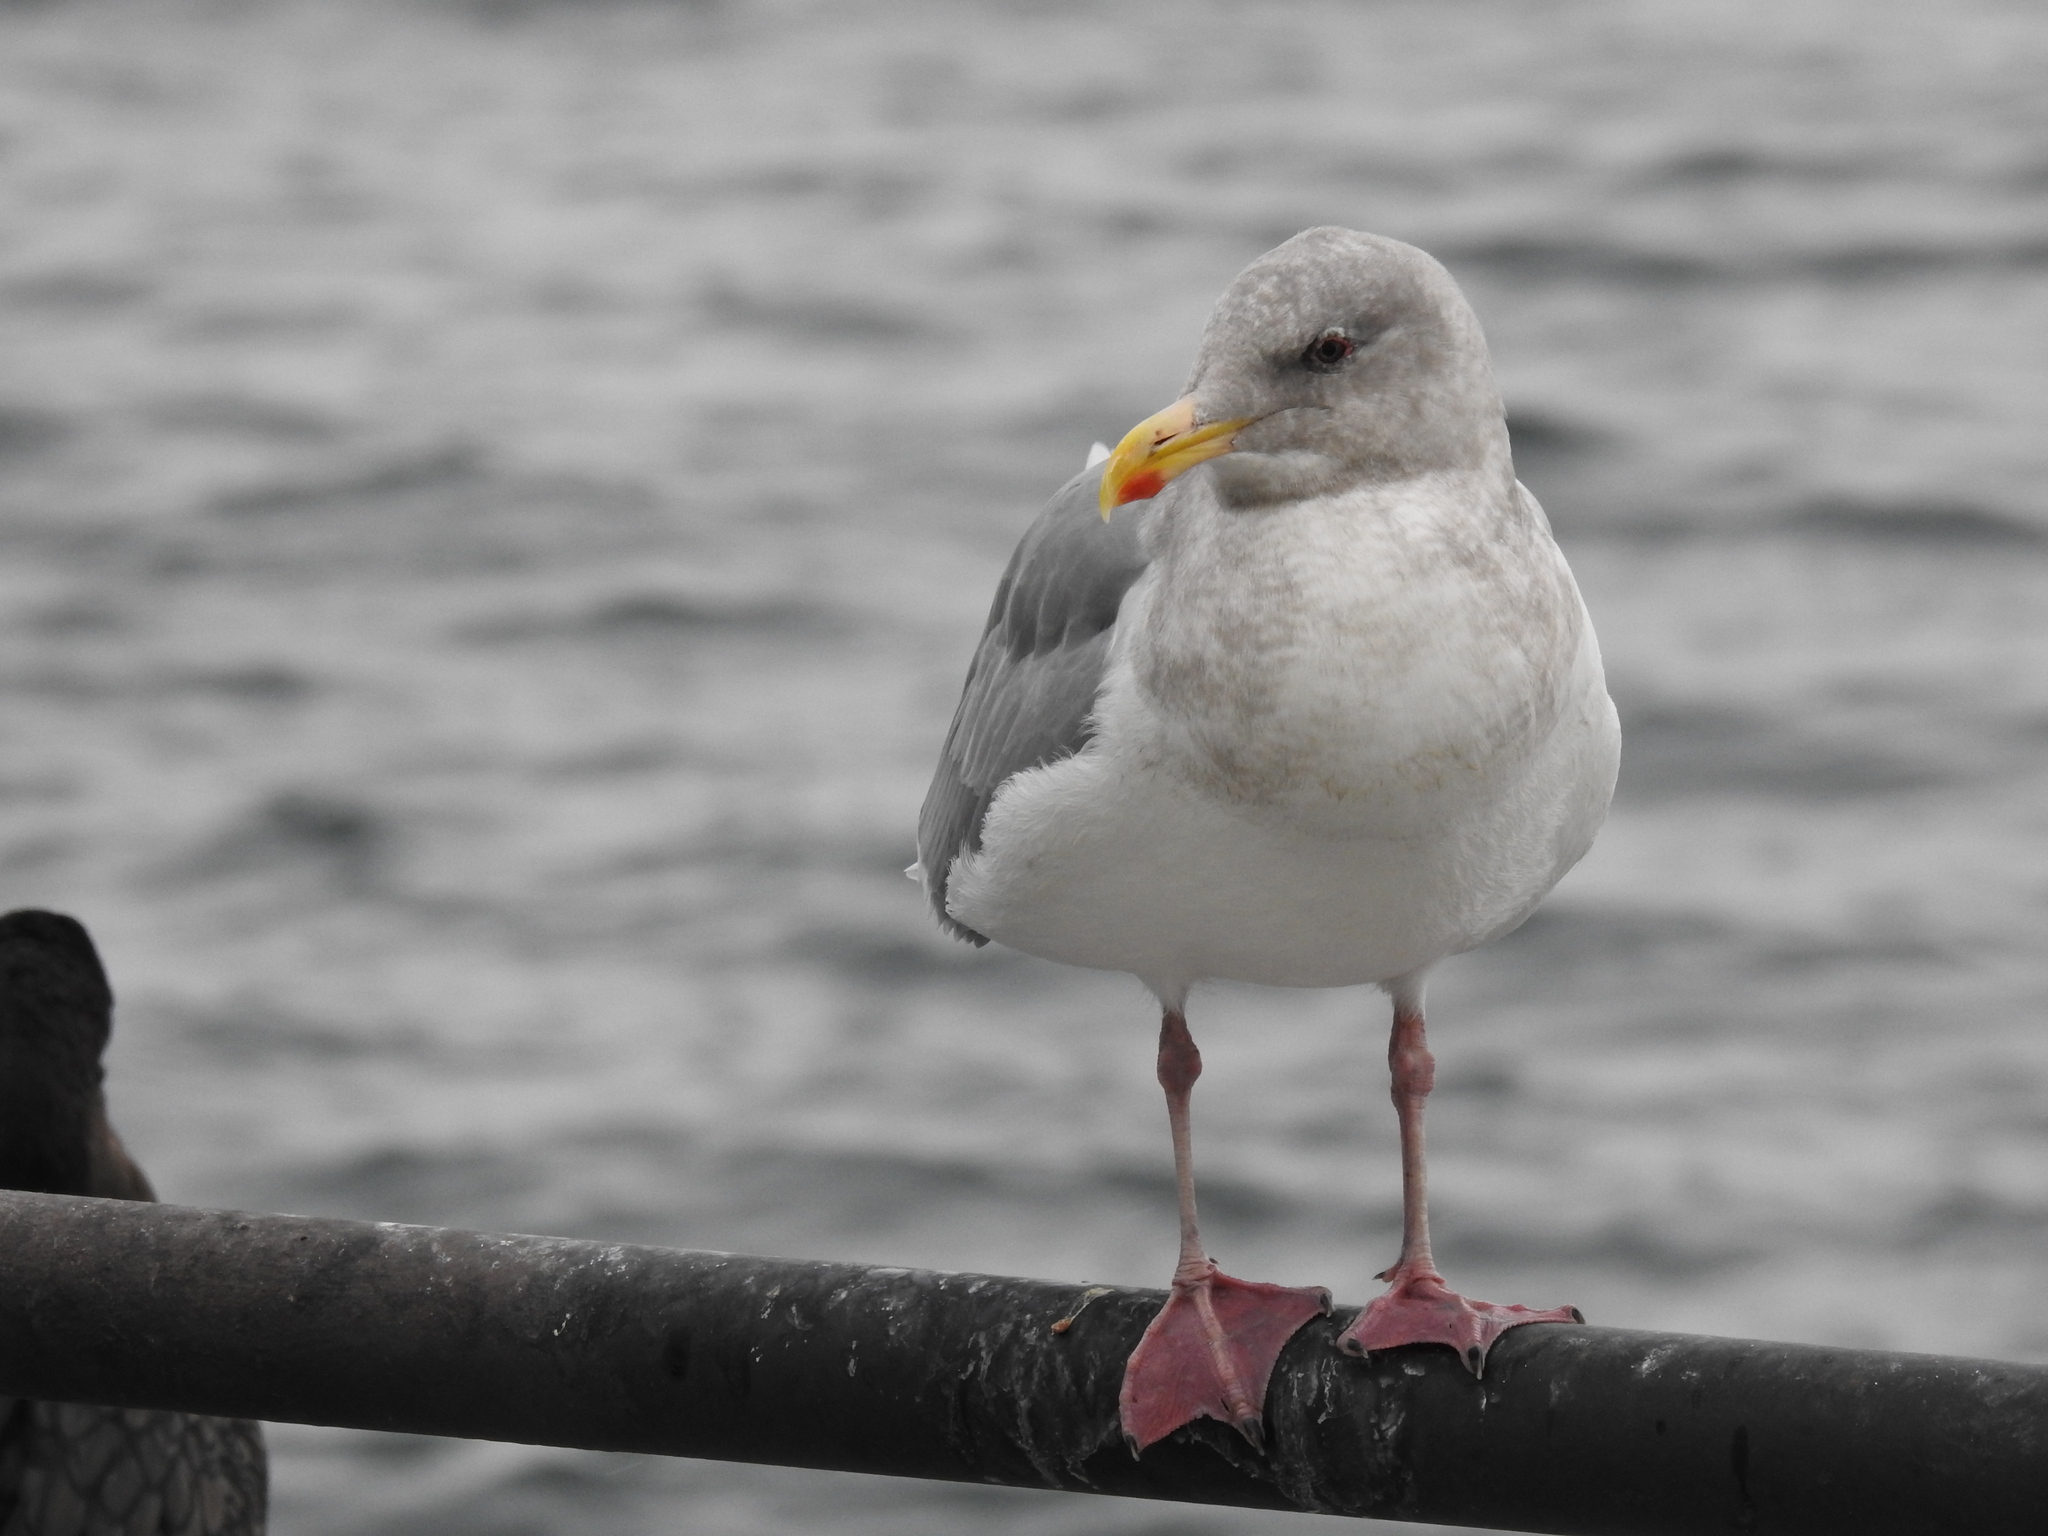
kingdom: Animalia
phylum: Chordata
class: Aves
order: Charadriiformes
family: Laridae
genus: Larus
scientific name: Larus
